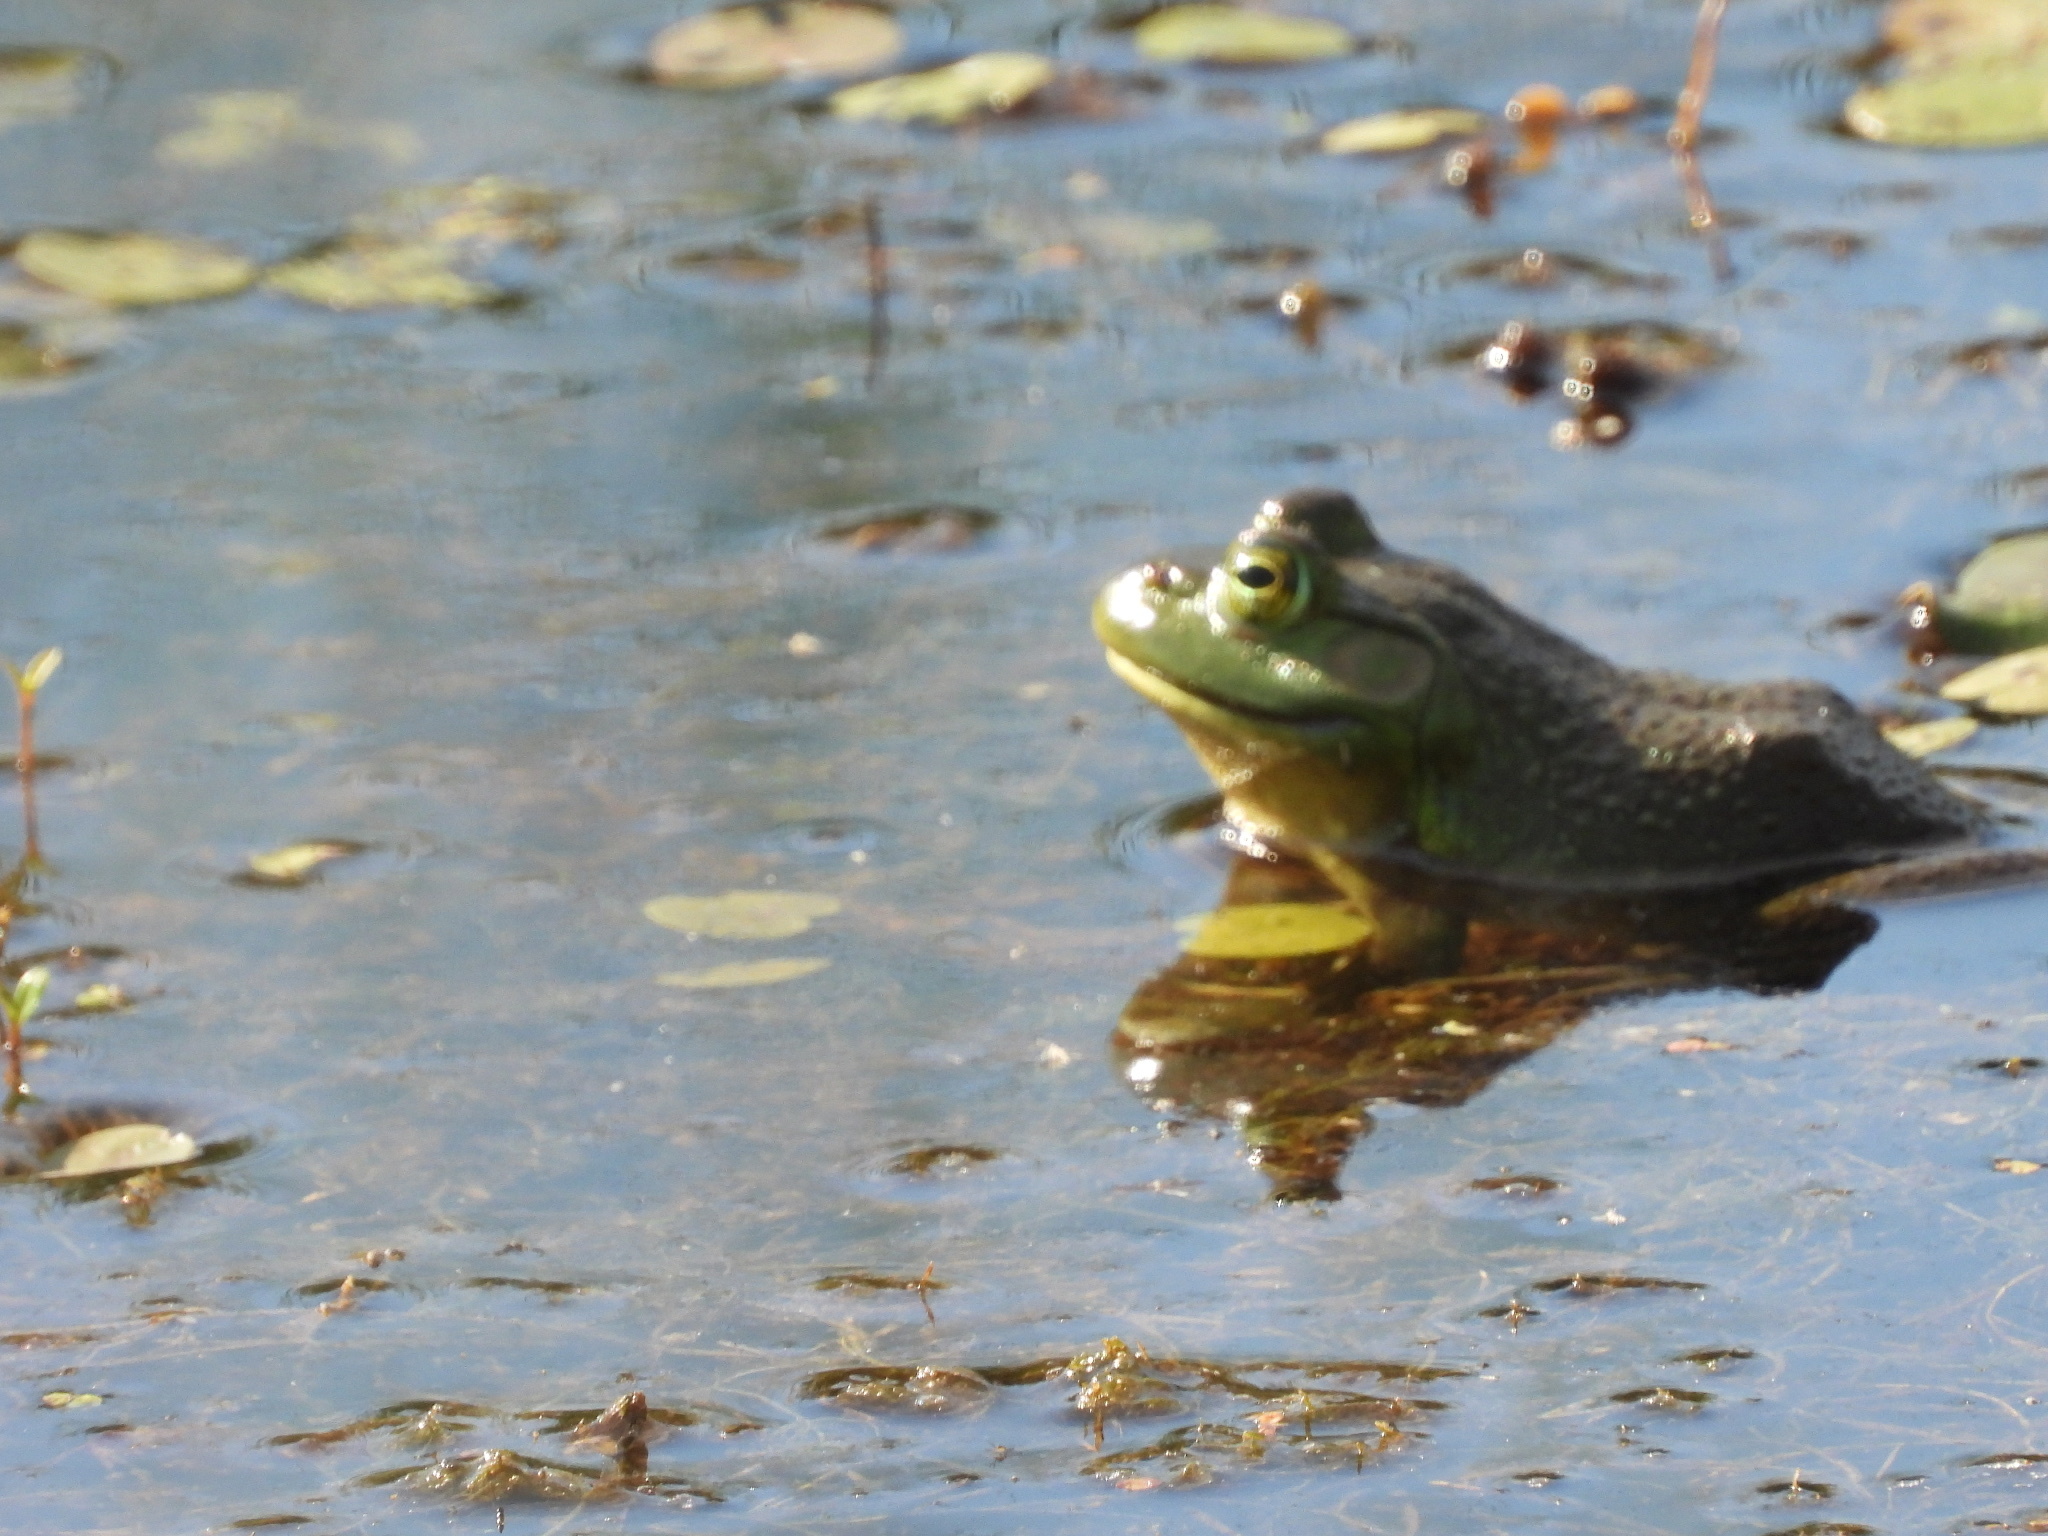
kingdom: Animalia
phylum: Chordata
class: Amphibia
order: Anura
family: Ranidae
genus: Lithobates
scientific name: Lithobates catesbeianus
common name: American bullfrog
